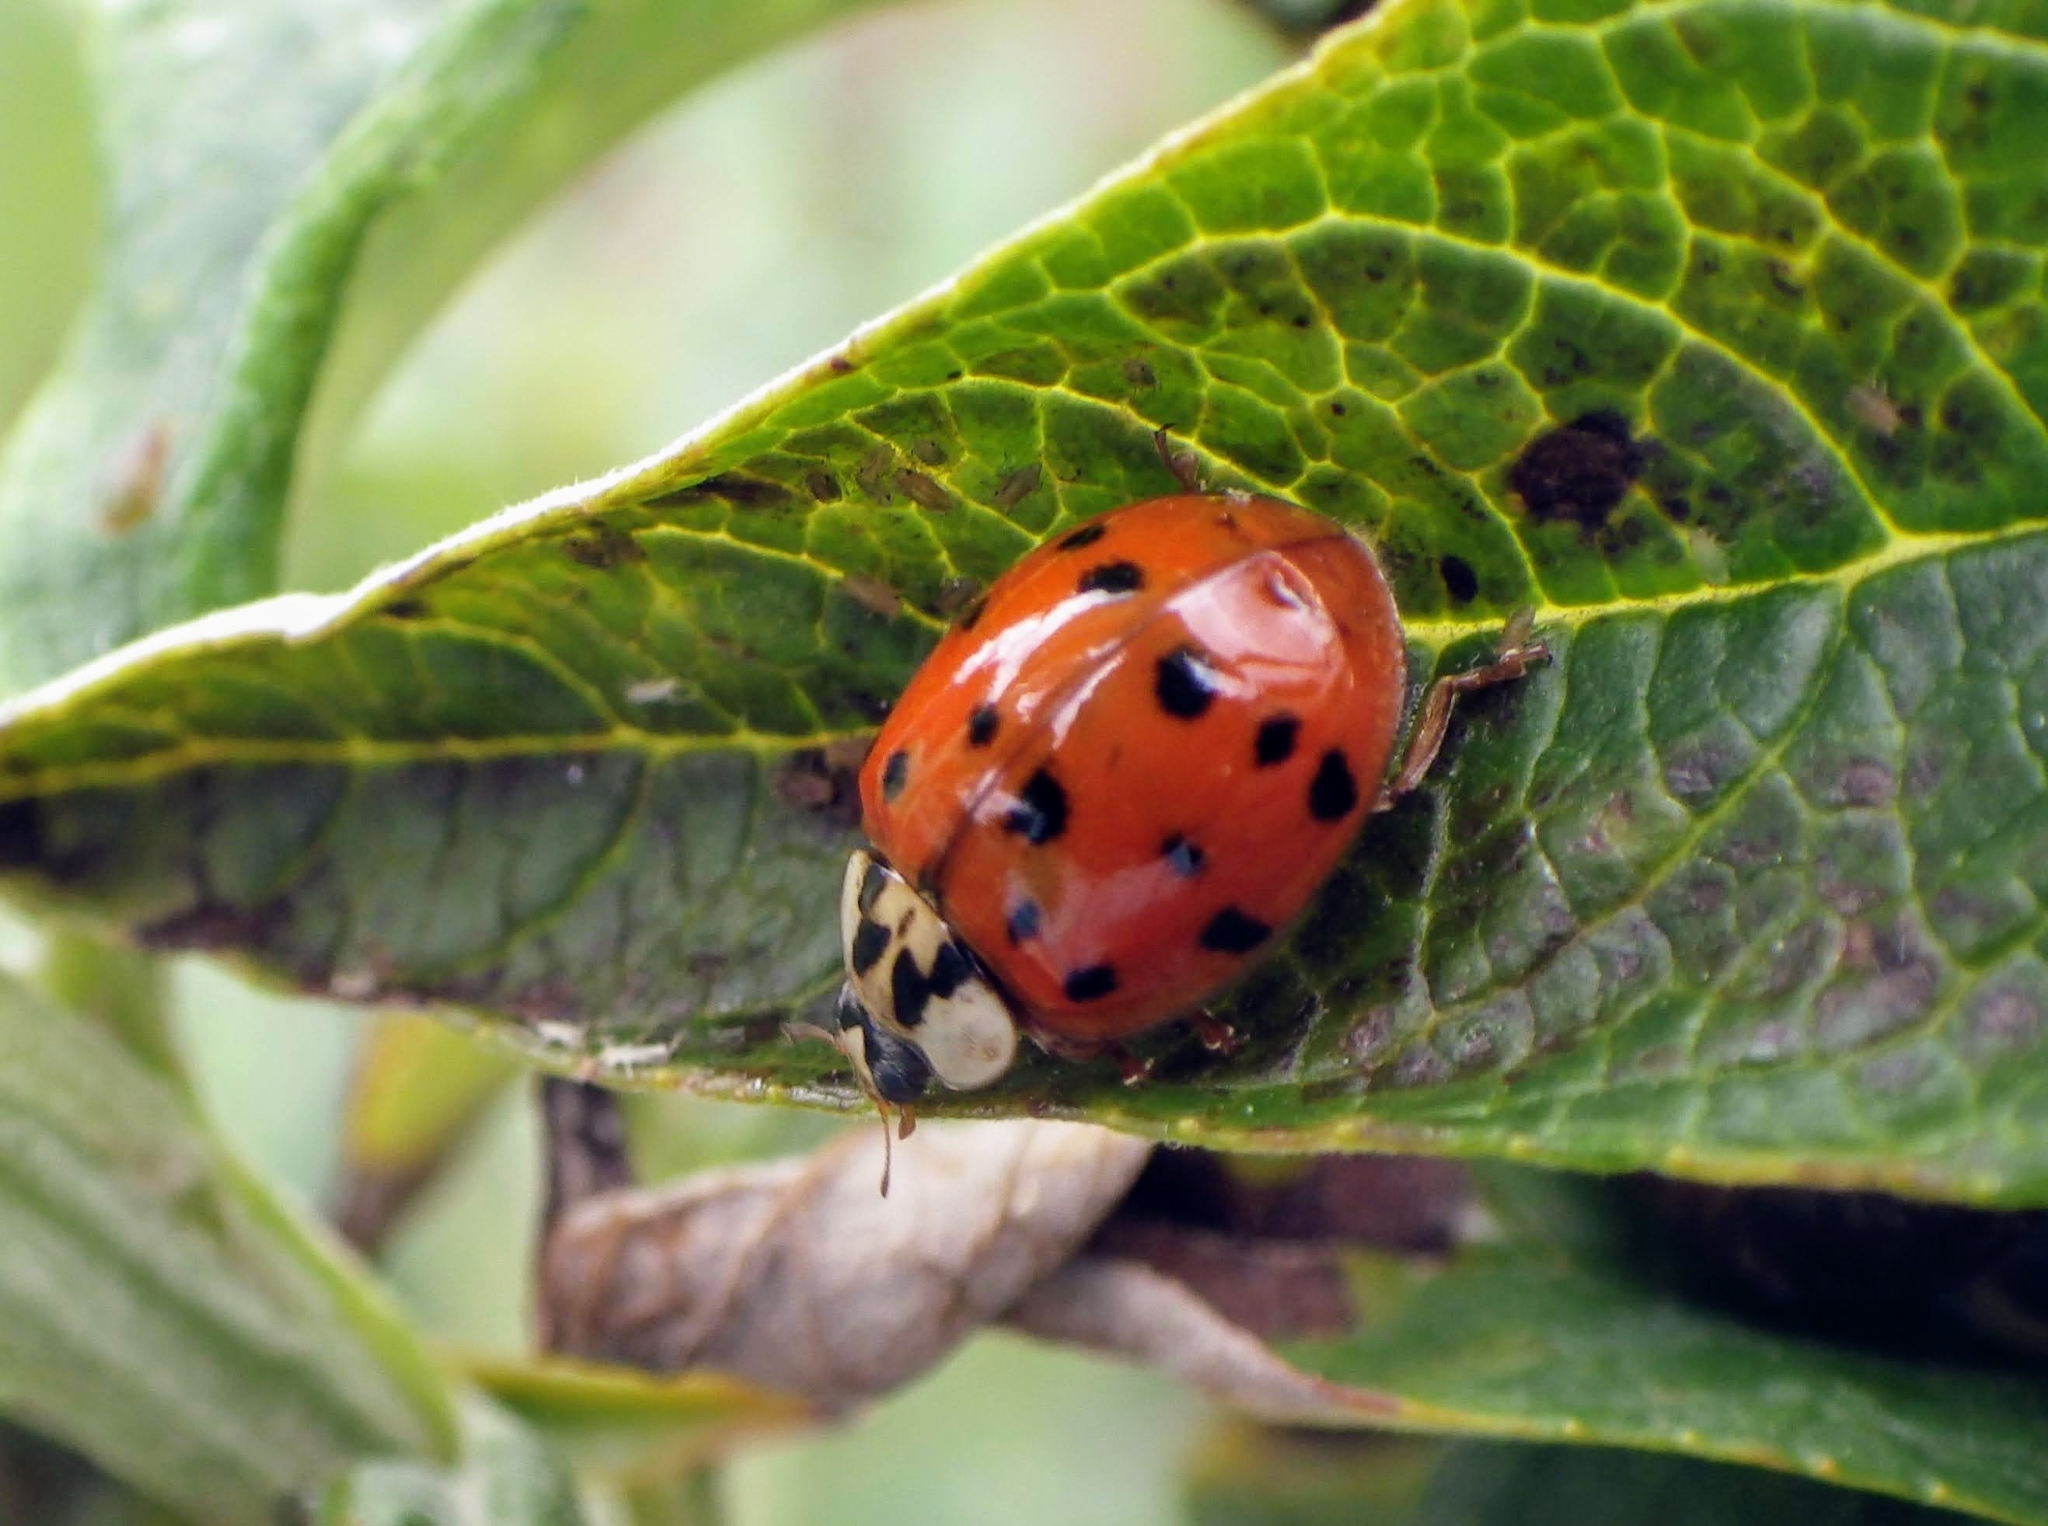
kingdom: Animalia
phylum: Arthropoda
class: Insecta
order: Coleoptera
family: Coccinellidae
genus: Harmonia
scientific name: Harmonia axyridis
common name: Harlequin ladybird
